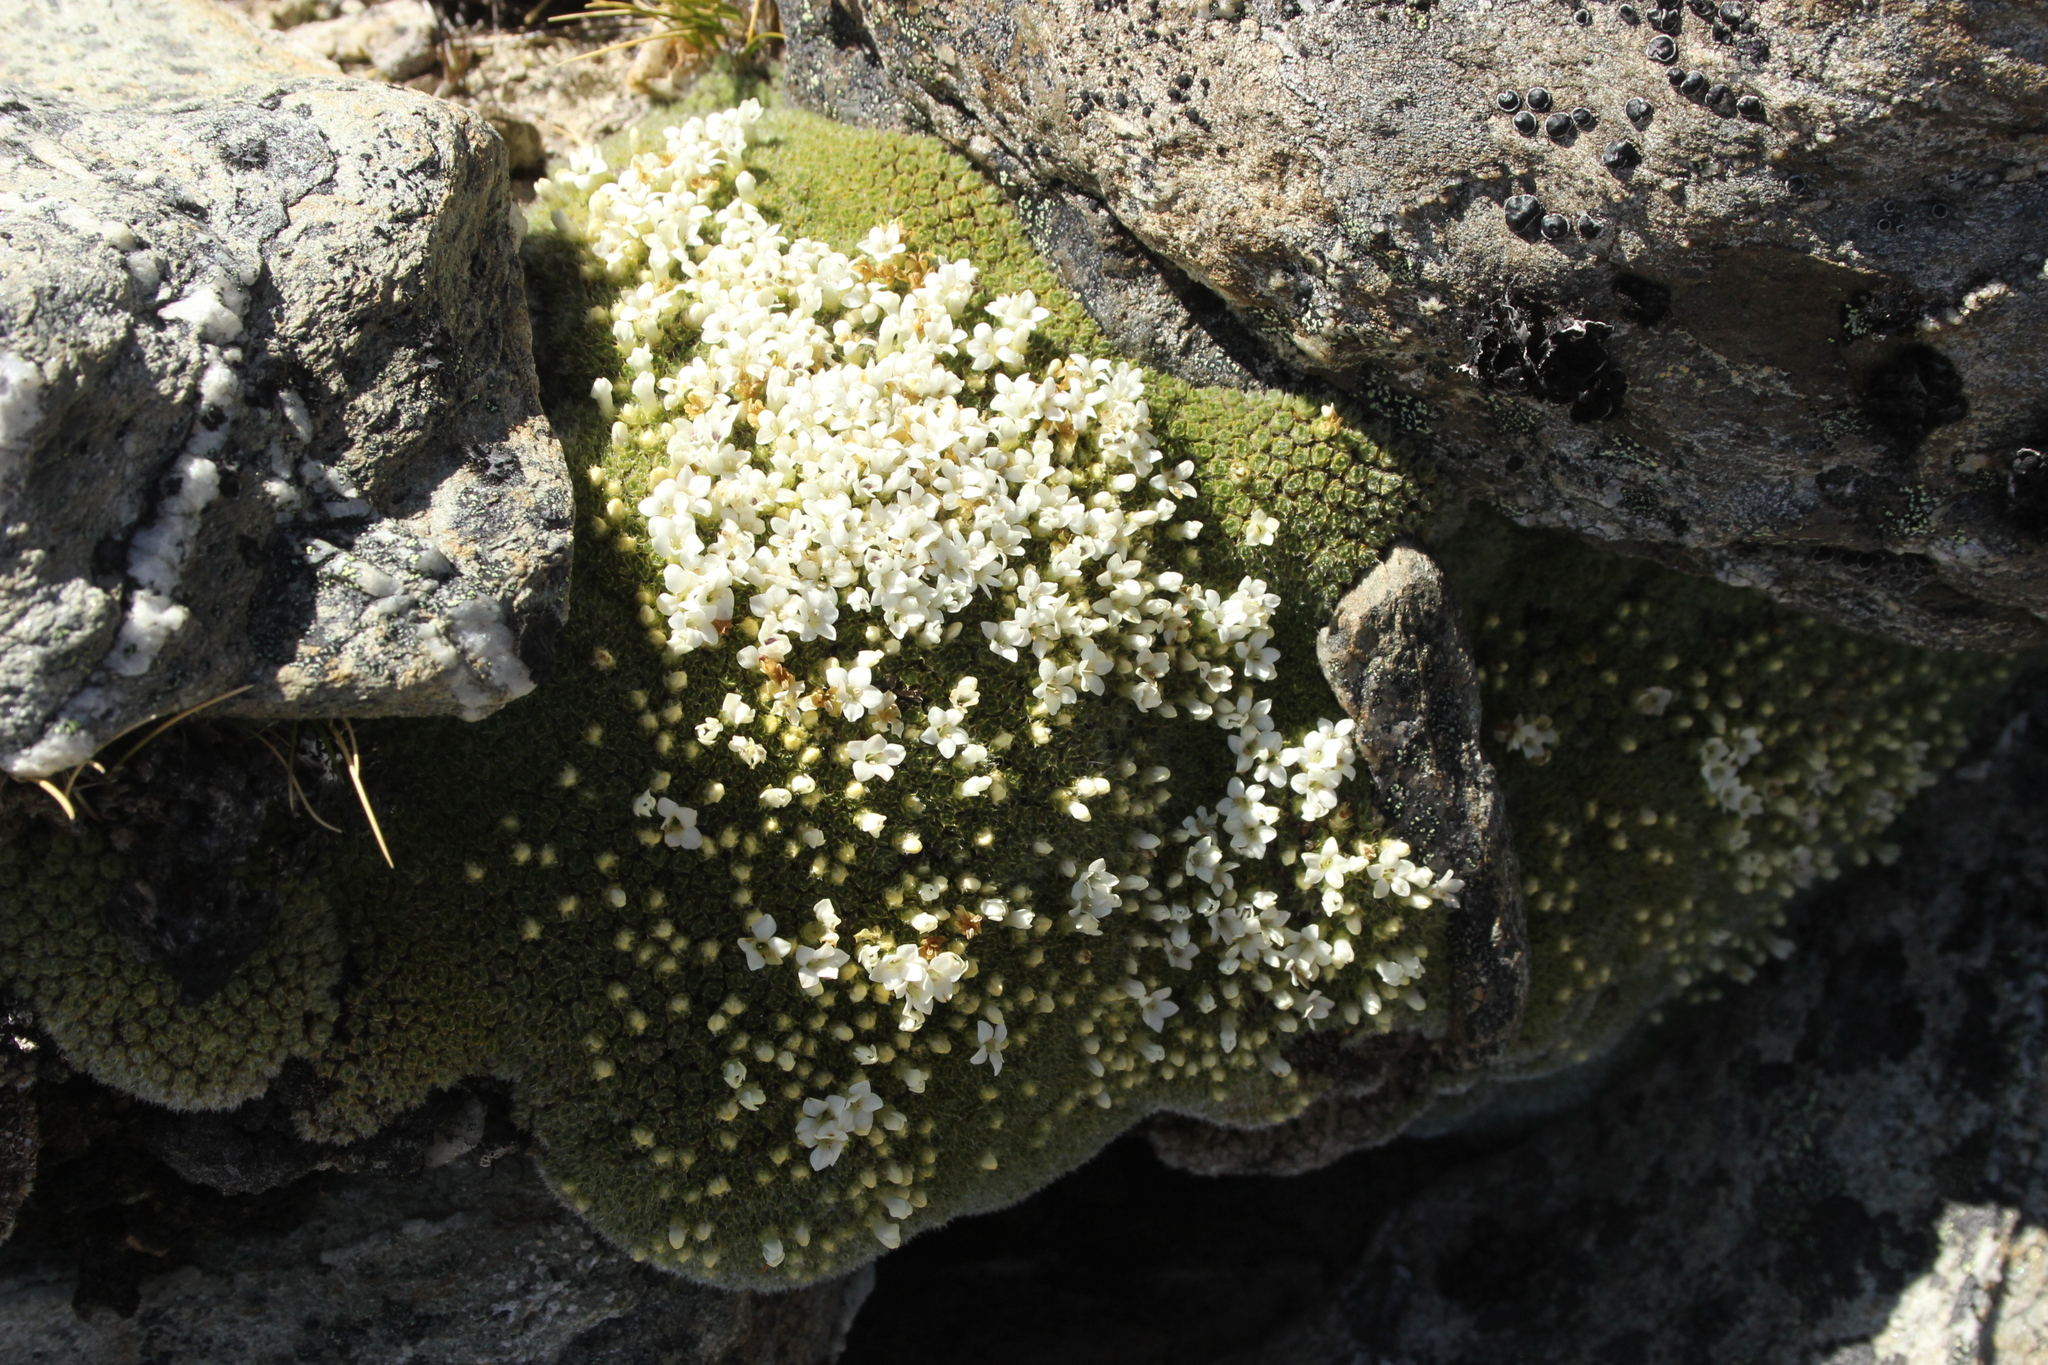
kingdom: Plantae
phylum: Tracheophyta
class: Magnoliopsida
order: Lamiales
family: Plantaginaceae
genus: Veronica
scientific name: Veronica thomsonii
